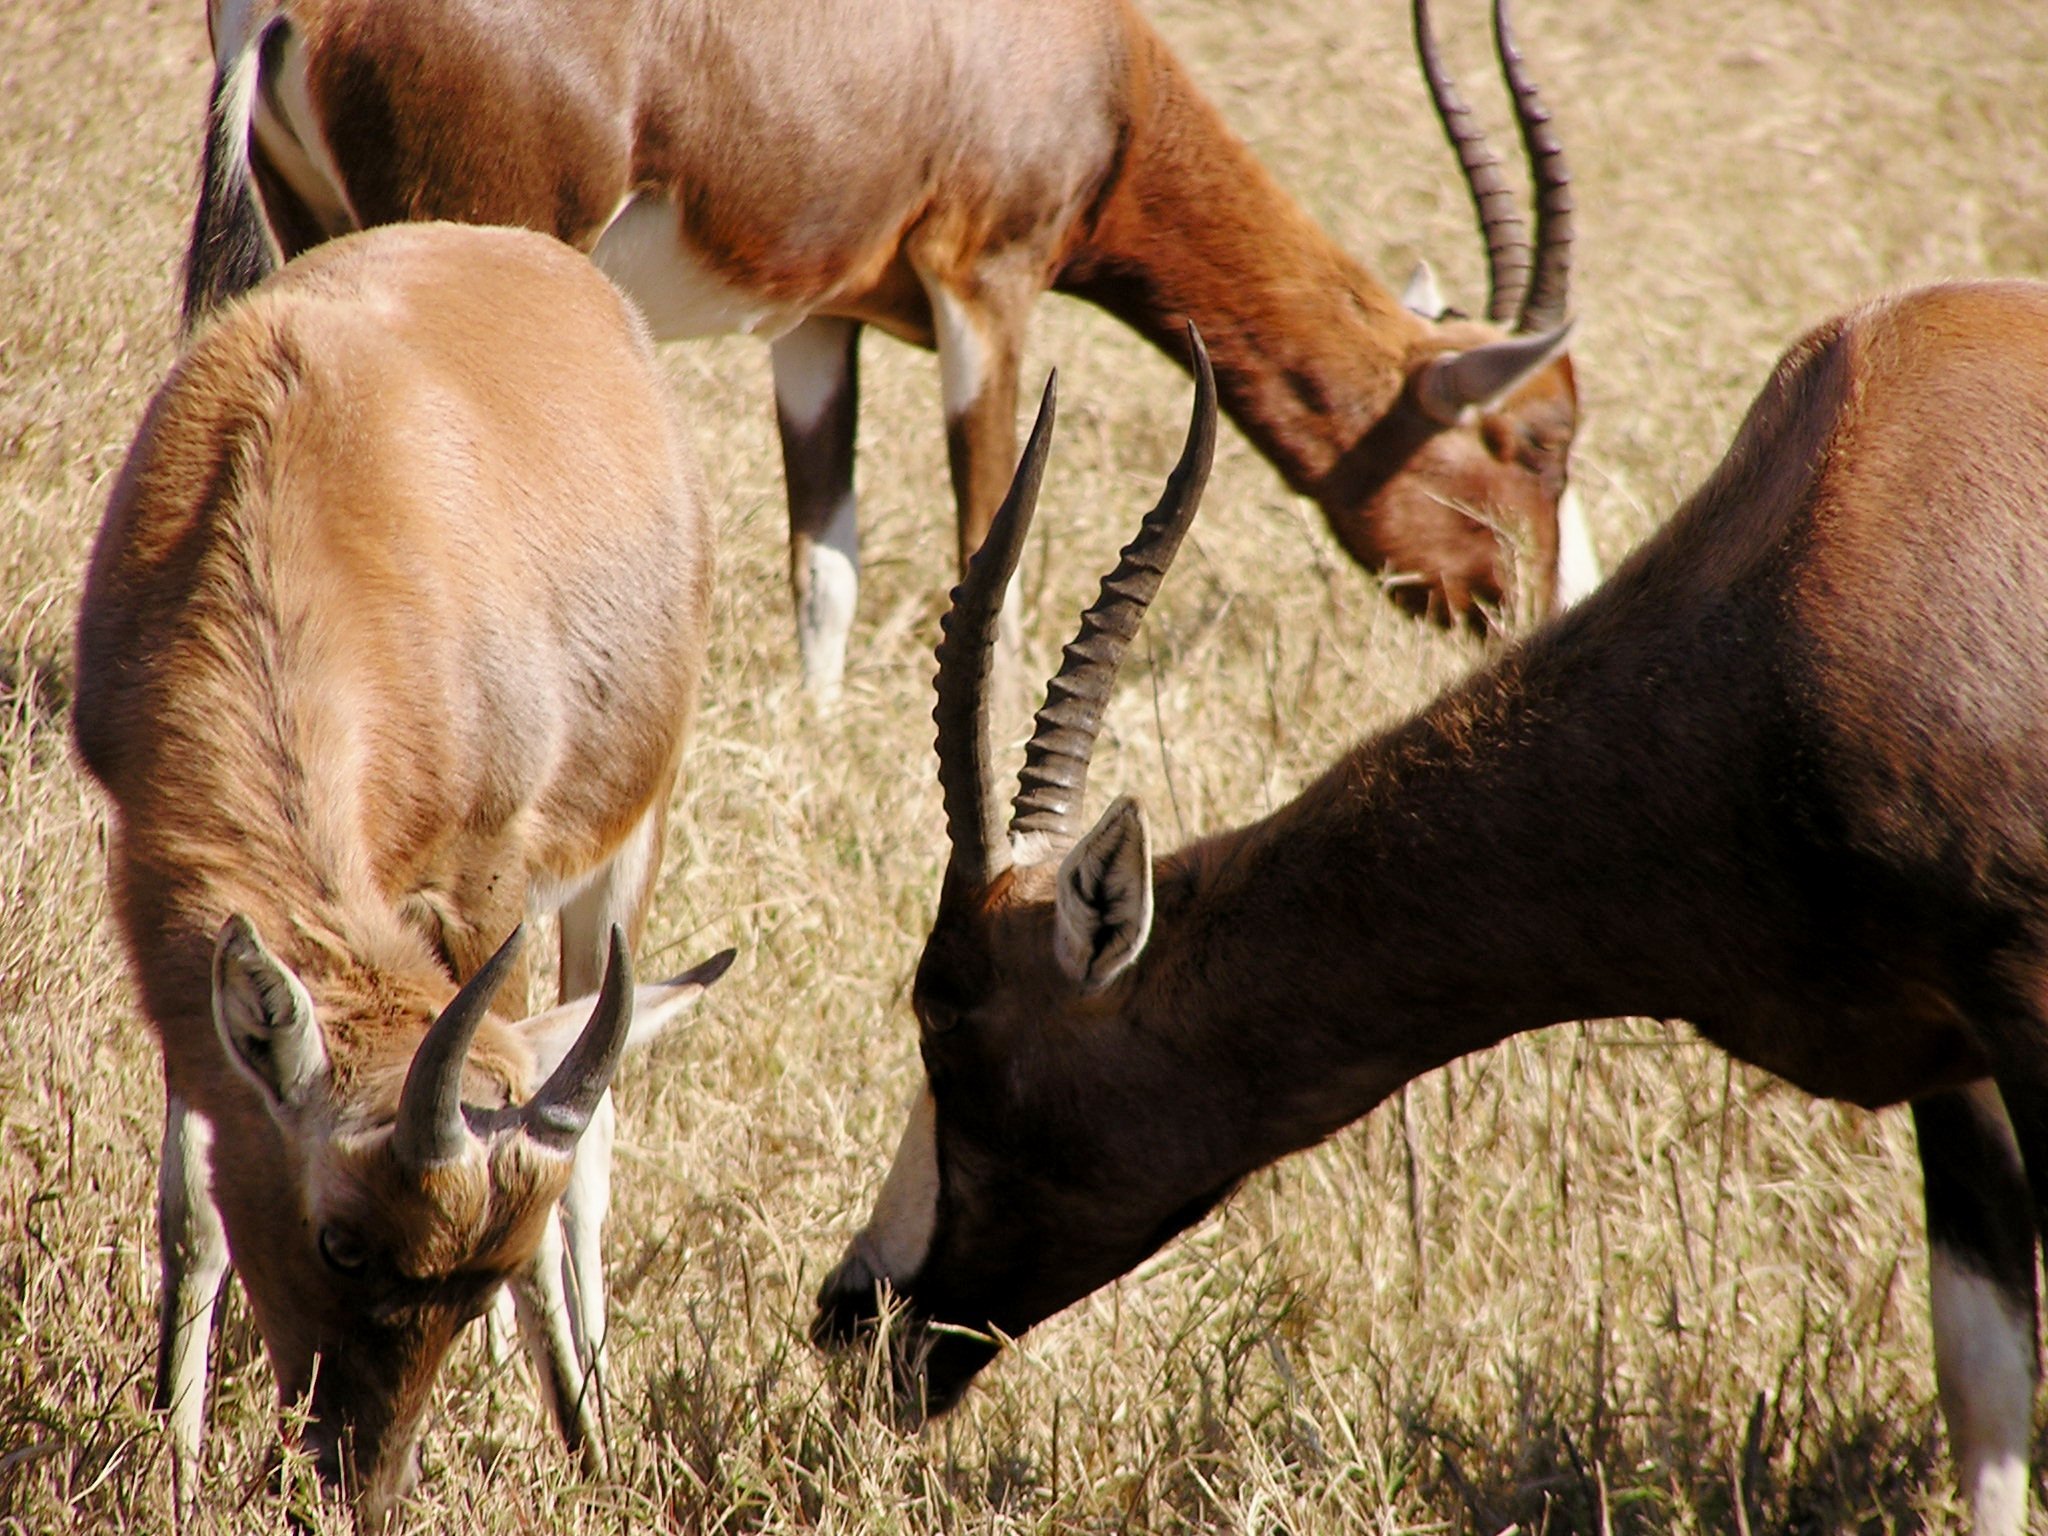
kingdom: Animalia
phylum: Chordata
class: Mammalia
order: Artiodactyla
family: Bovidae
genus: Damaliscus
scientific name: Damaliscus pygargus
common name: Bontebok
